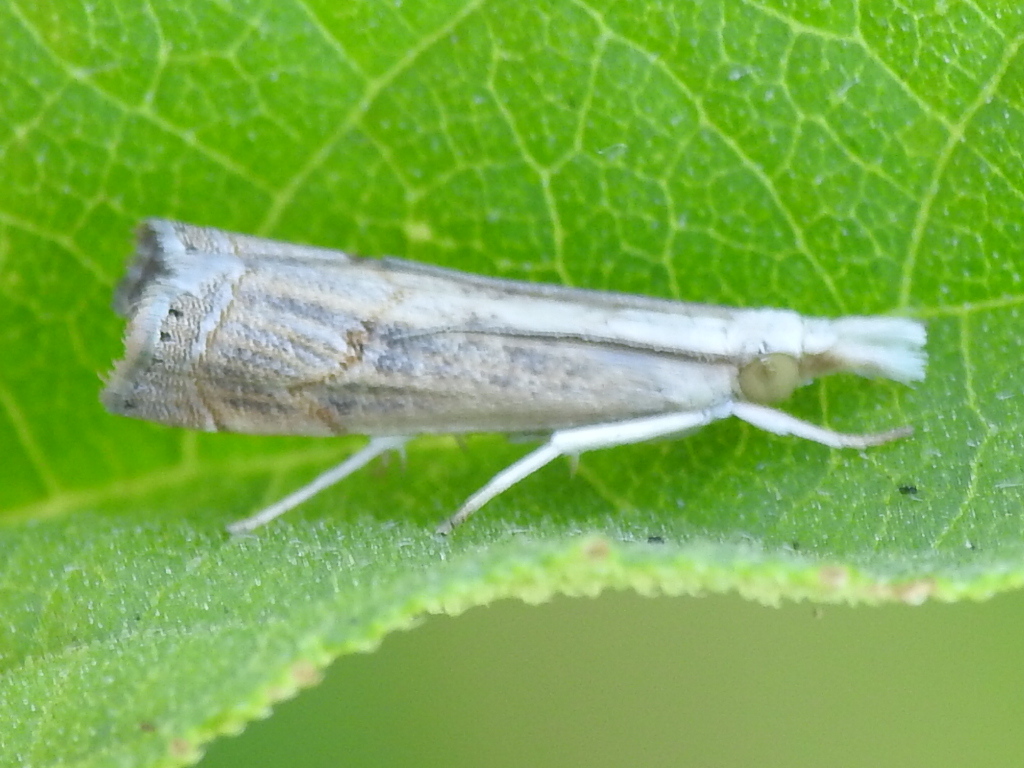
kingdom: Animalia
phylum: Arthropoda
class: Insecta
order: Lepidoptera
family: Crambidae
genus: Parapediasia
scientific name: Parapediasia teterellus
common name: Bluegrass webworm moth
